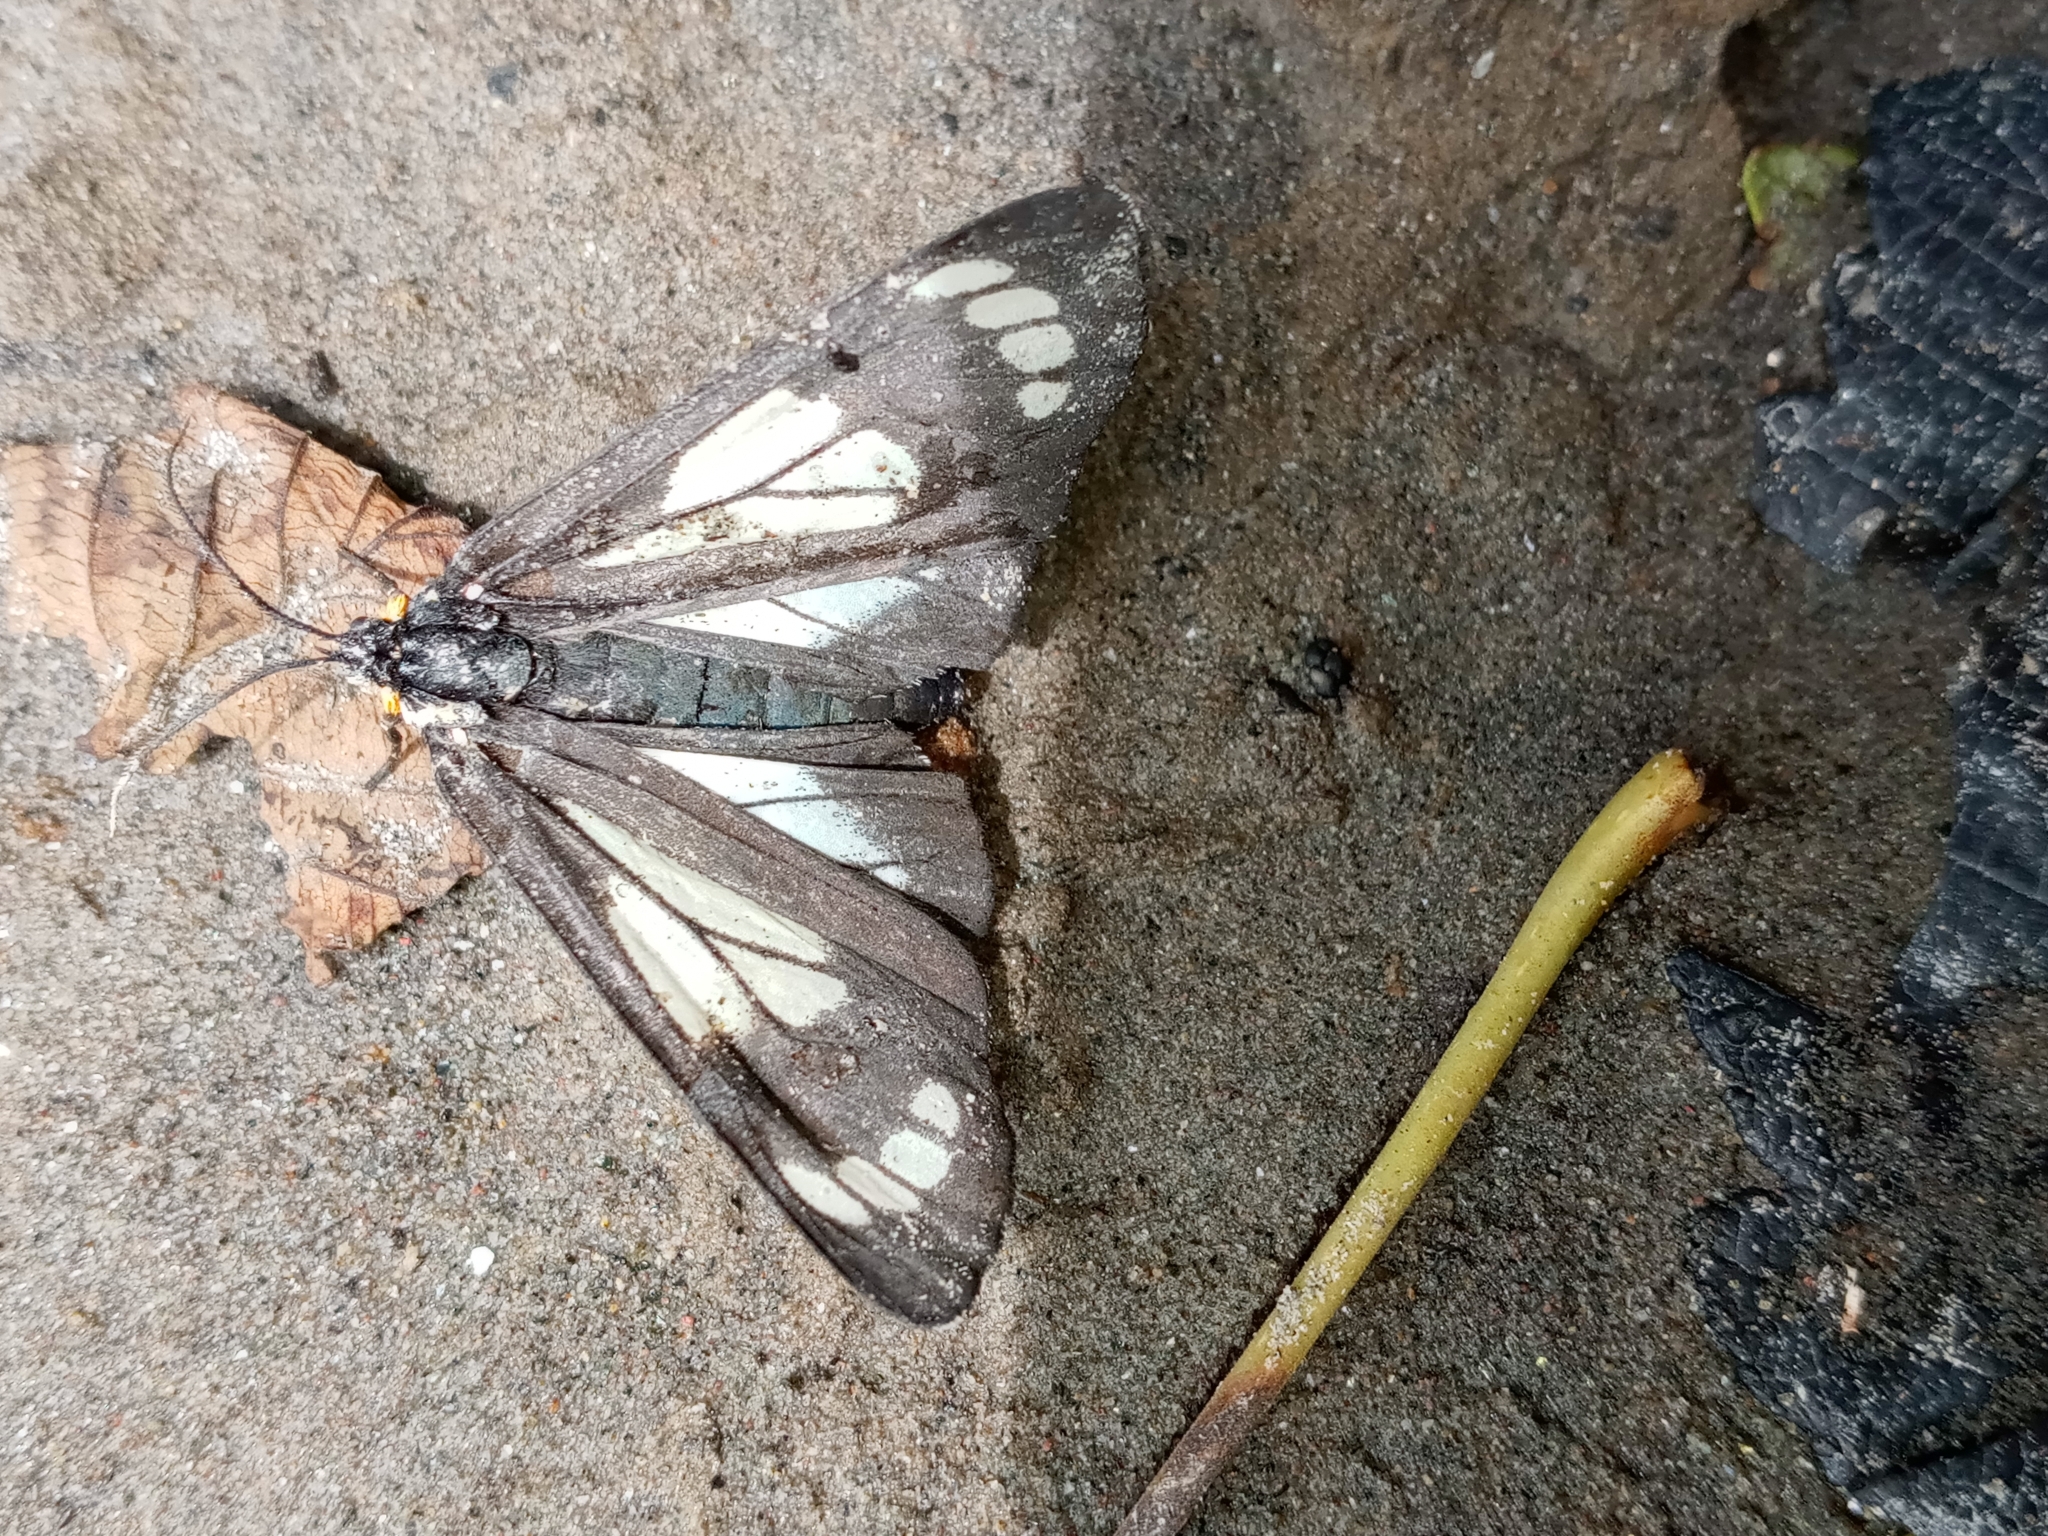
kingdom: Animalia
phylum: Arthropoda
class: Insecta
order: Lepidoptera
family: Erebidae
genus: Gnophaela
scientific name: Gnophaela vermiculata
